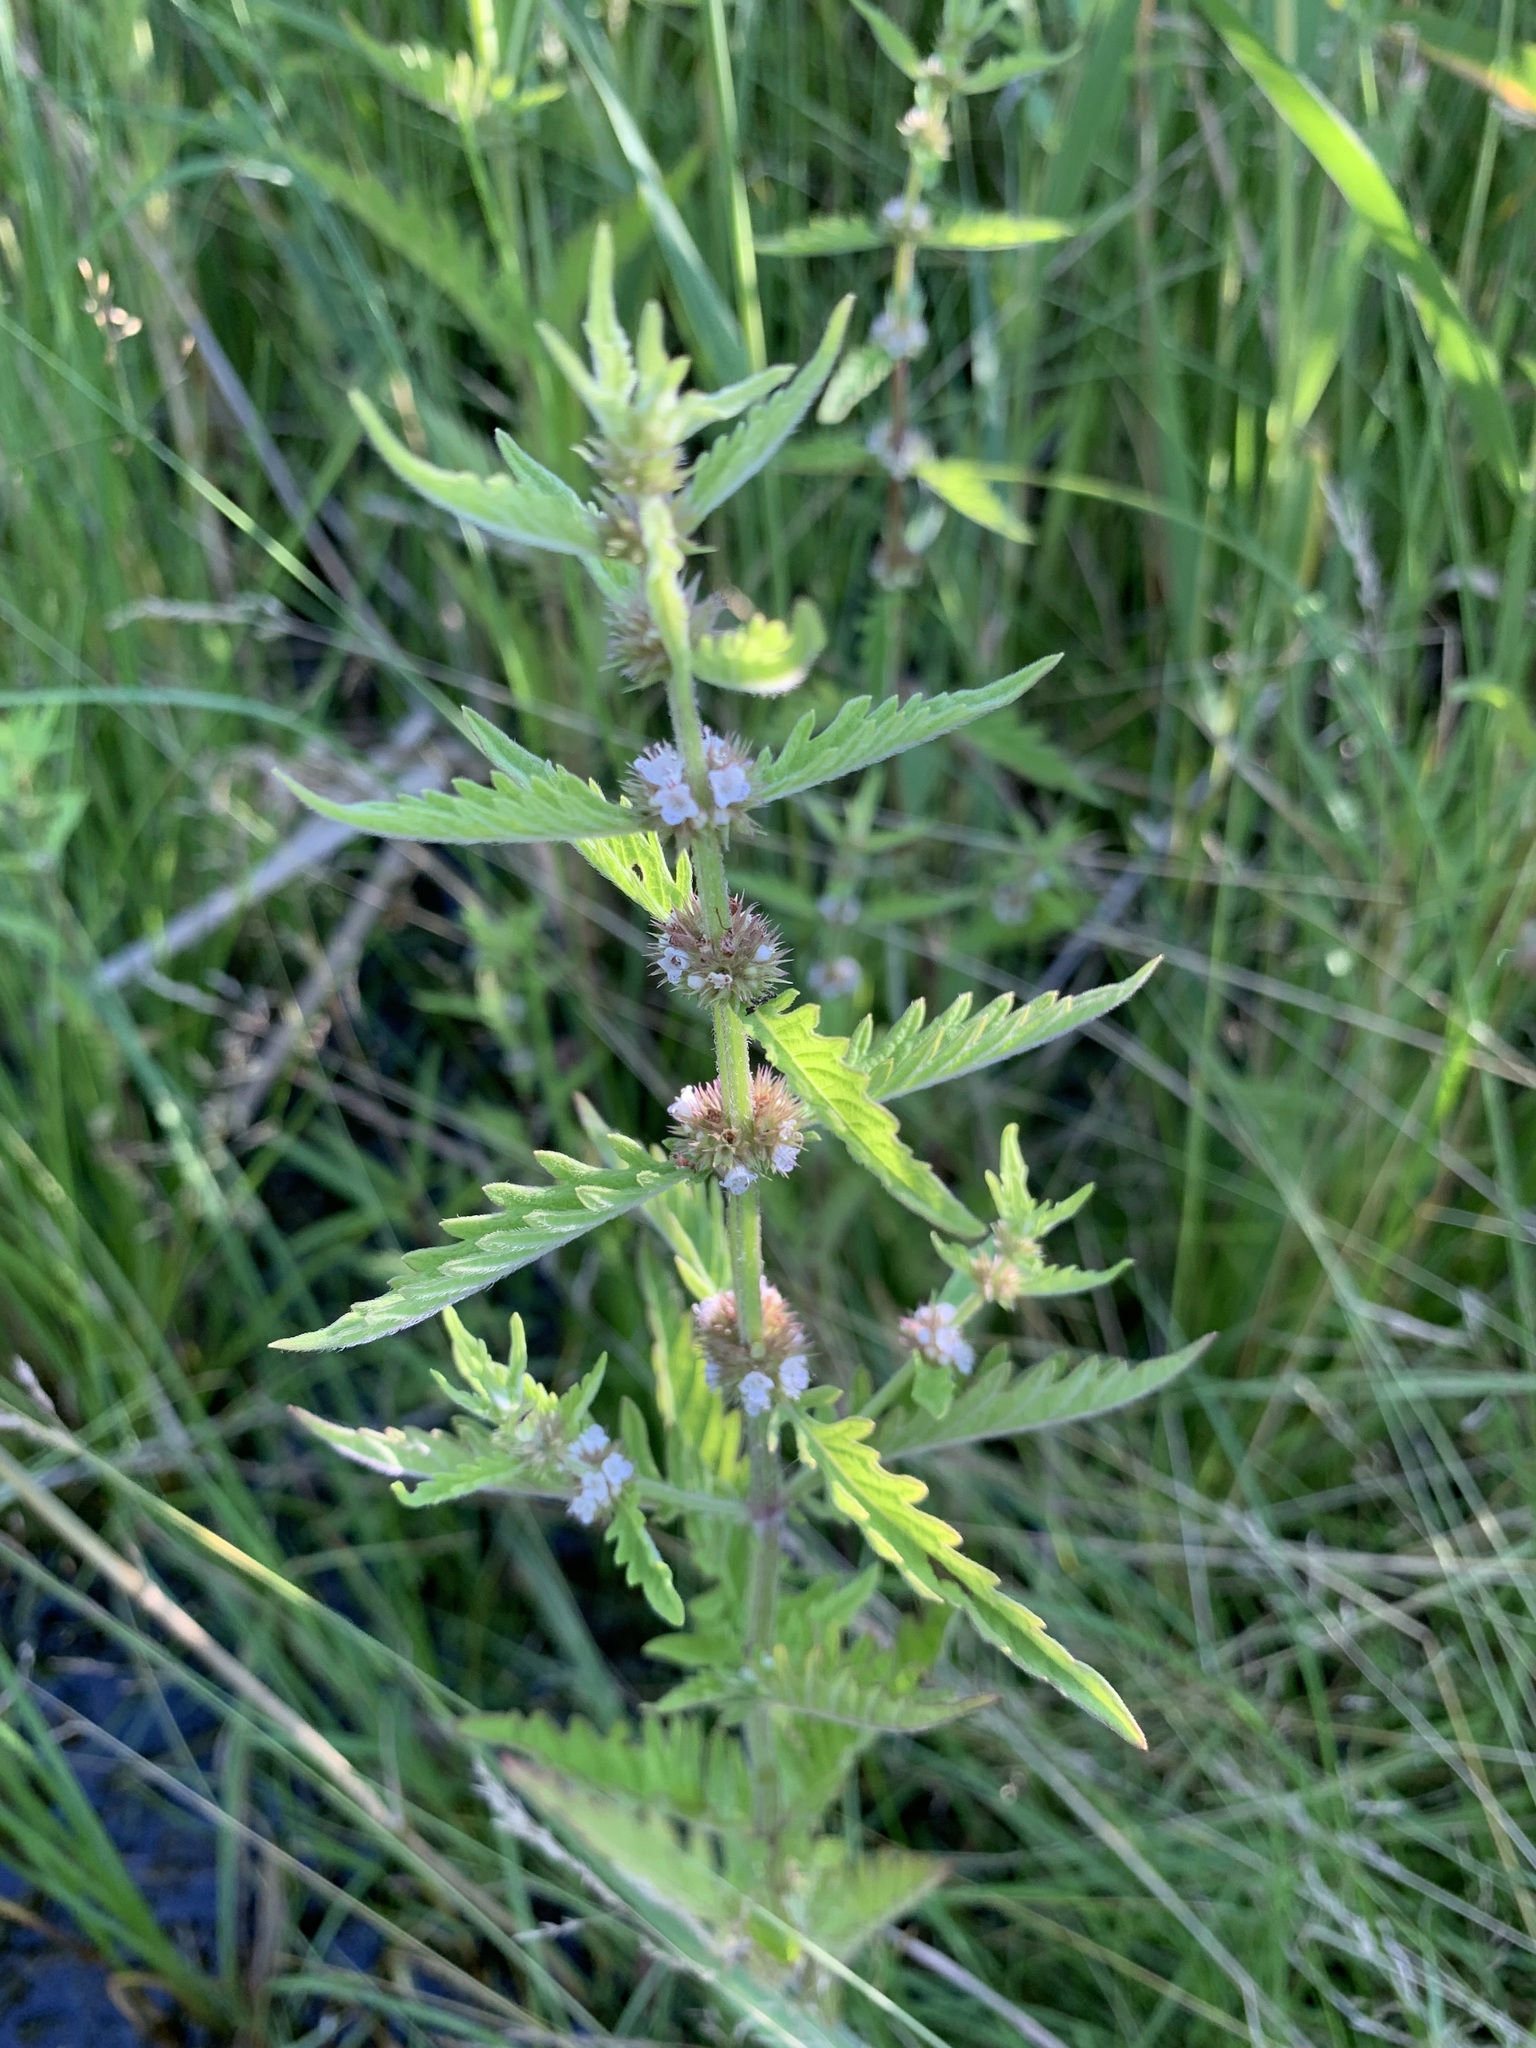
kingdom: Plantae
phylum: Tracheophyta
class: Magnoliopsida
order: Lamiales
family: Lamiaceae
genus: Lycopus
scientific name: Lycopus europaeus
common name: European bugleweed
